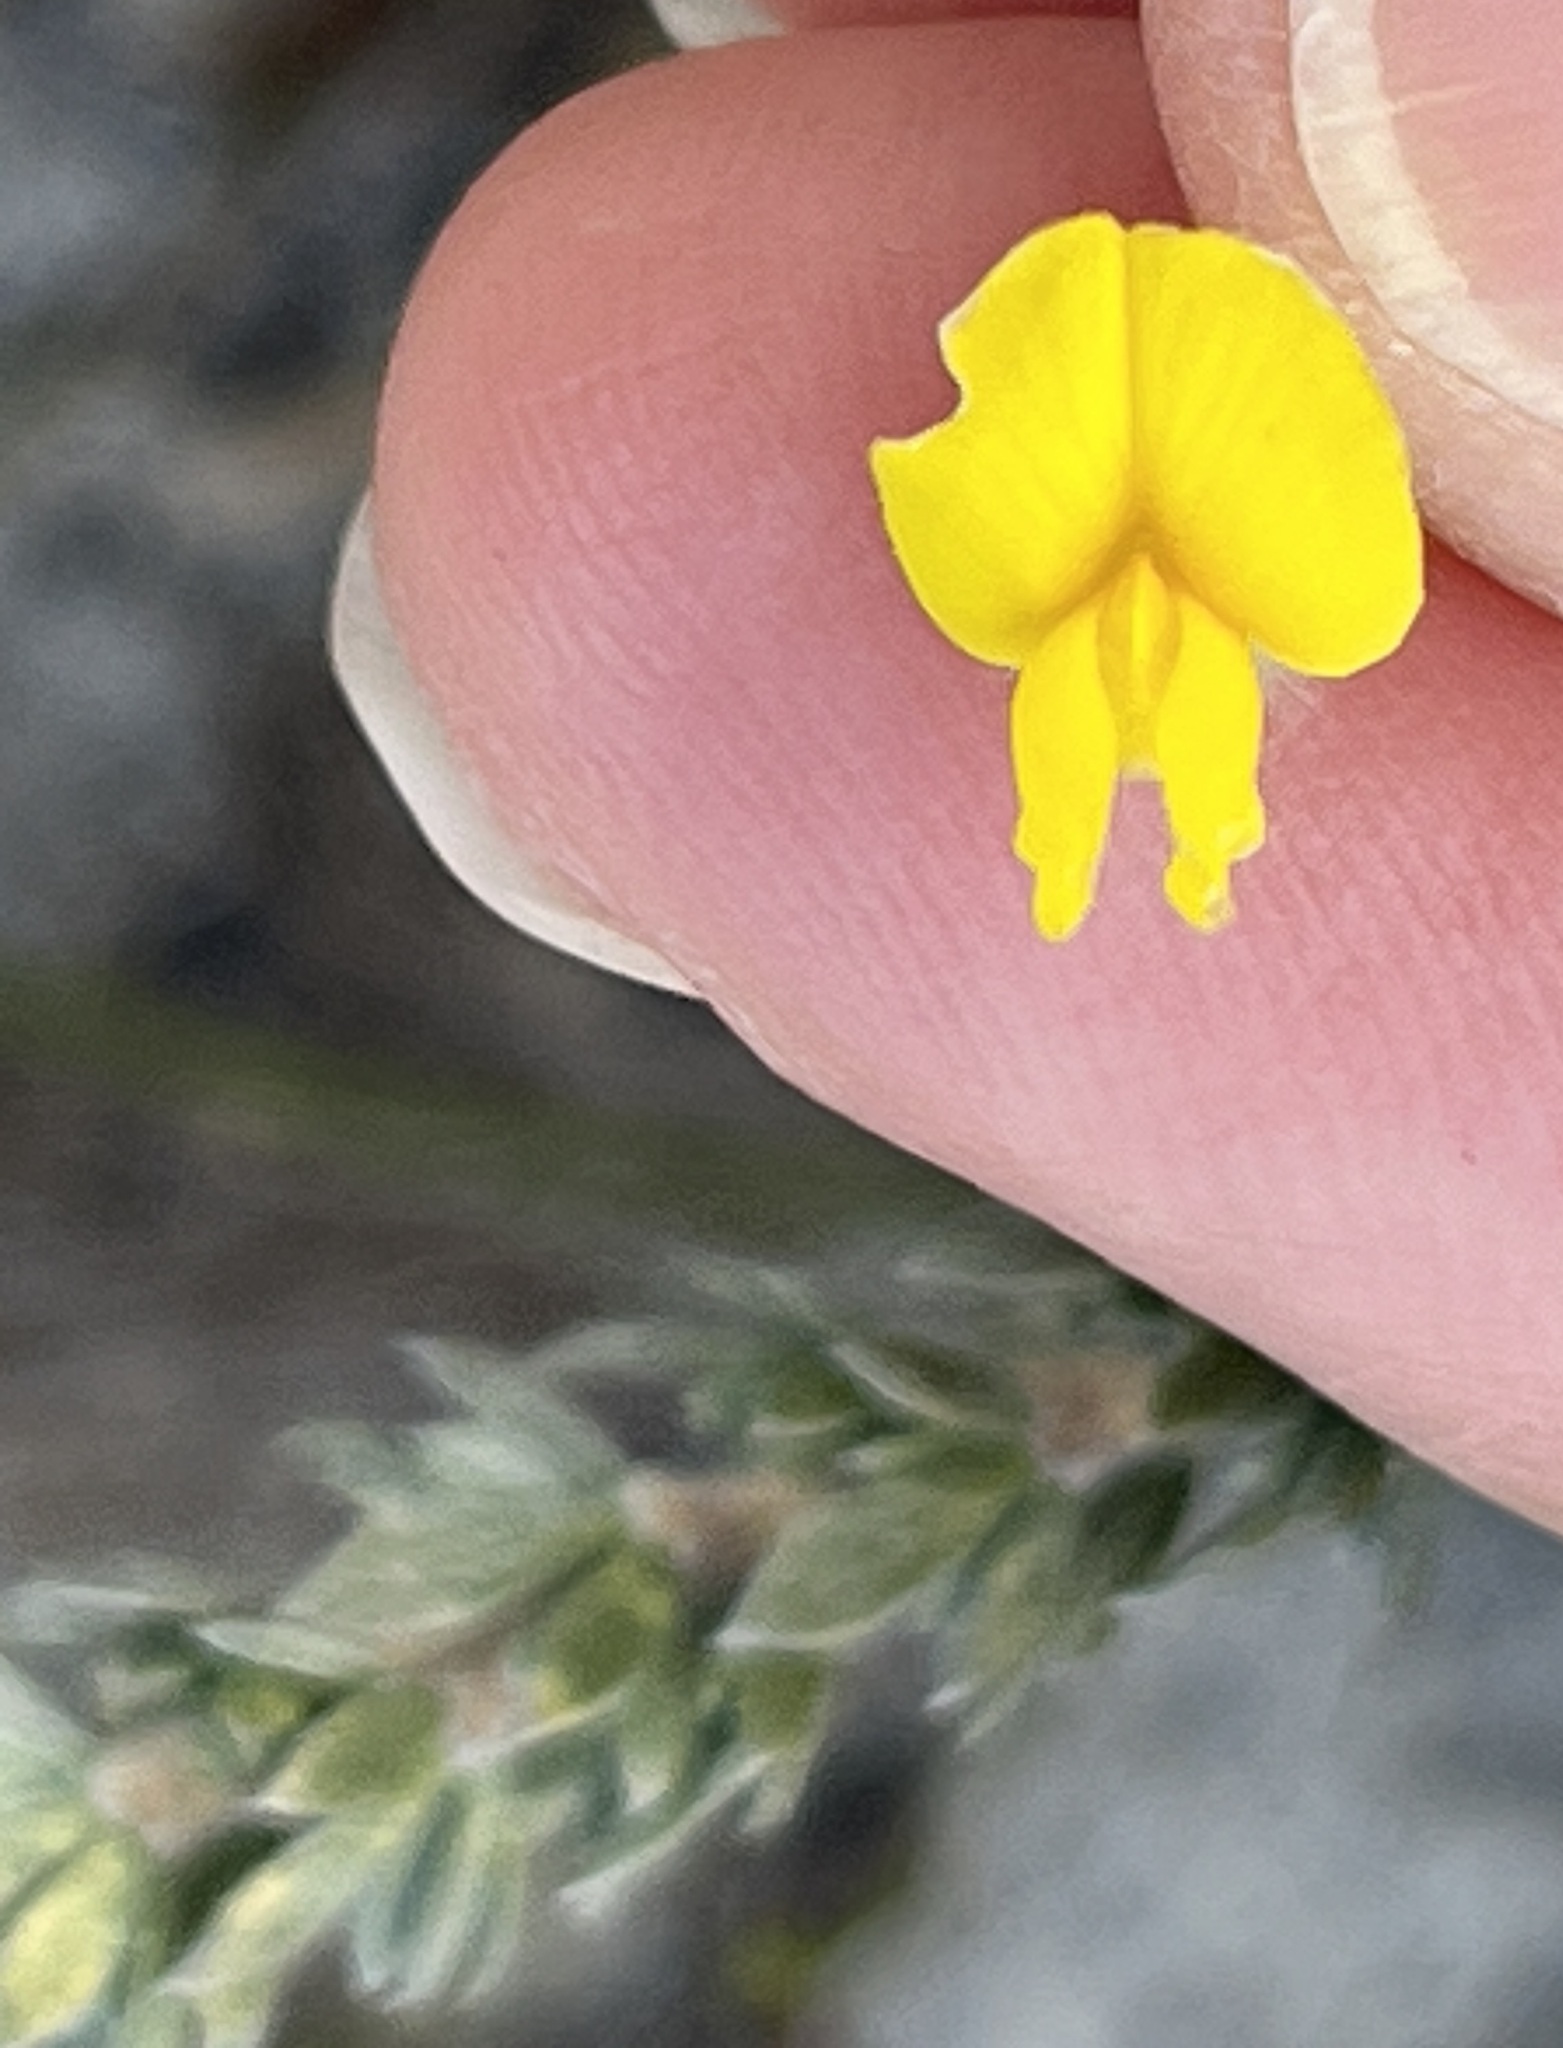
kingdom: Plantae
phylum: Tracheophyta
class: Magnoliopsida
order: Fabales
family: Fabaceae
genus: Aspalathus
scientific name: Aspalathus quinquefolia
